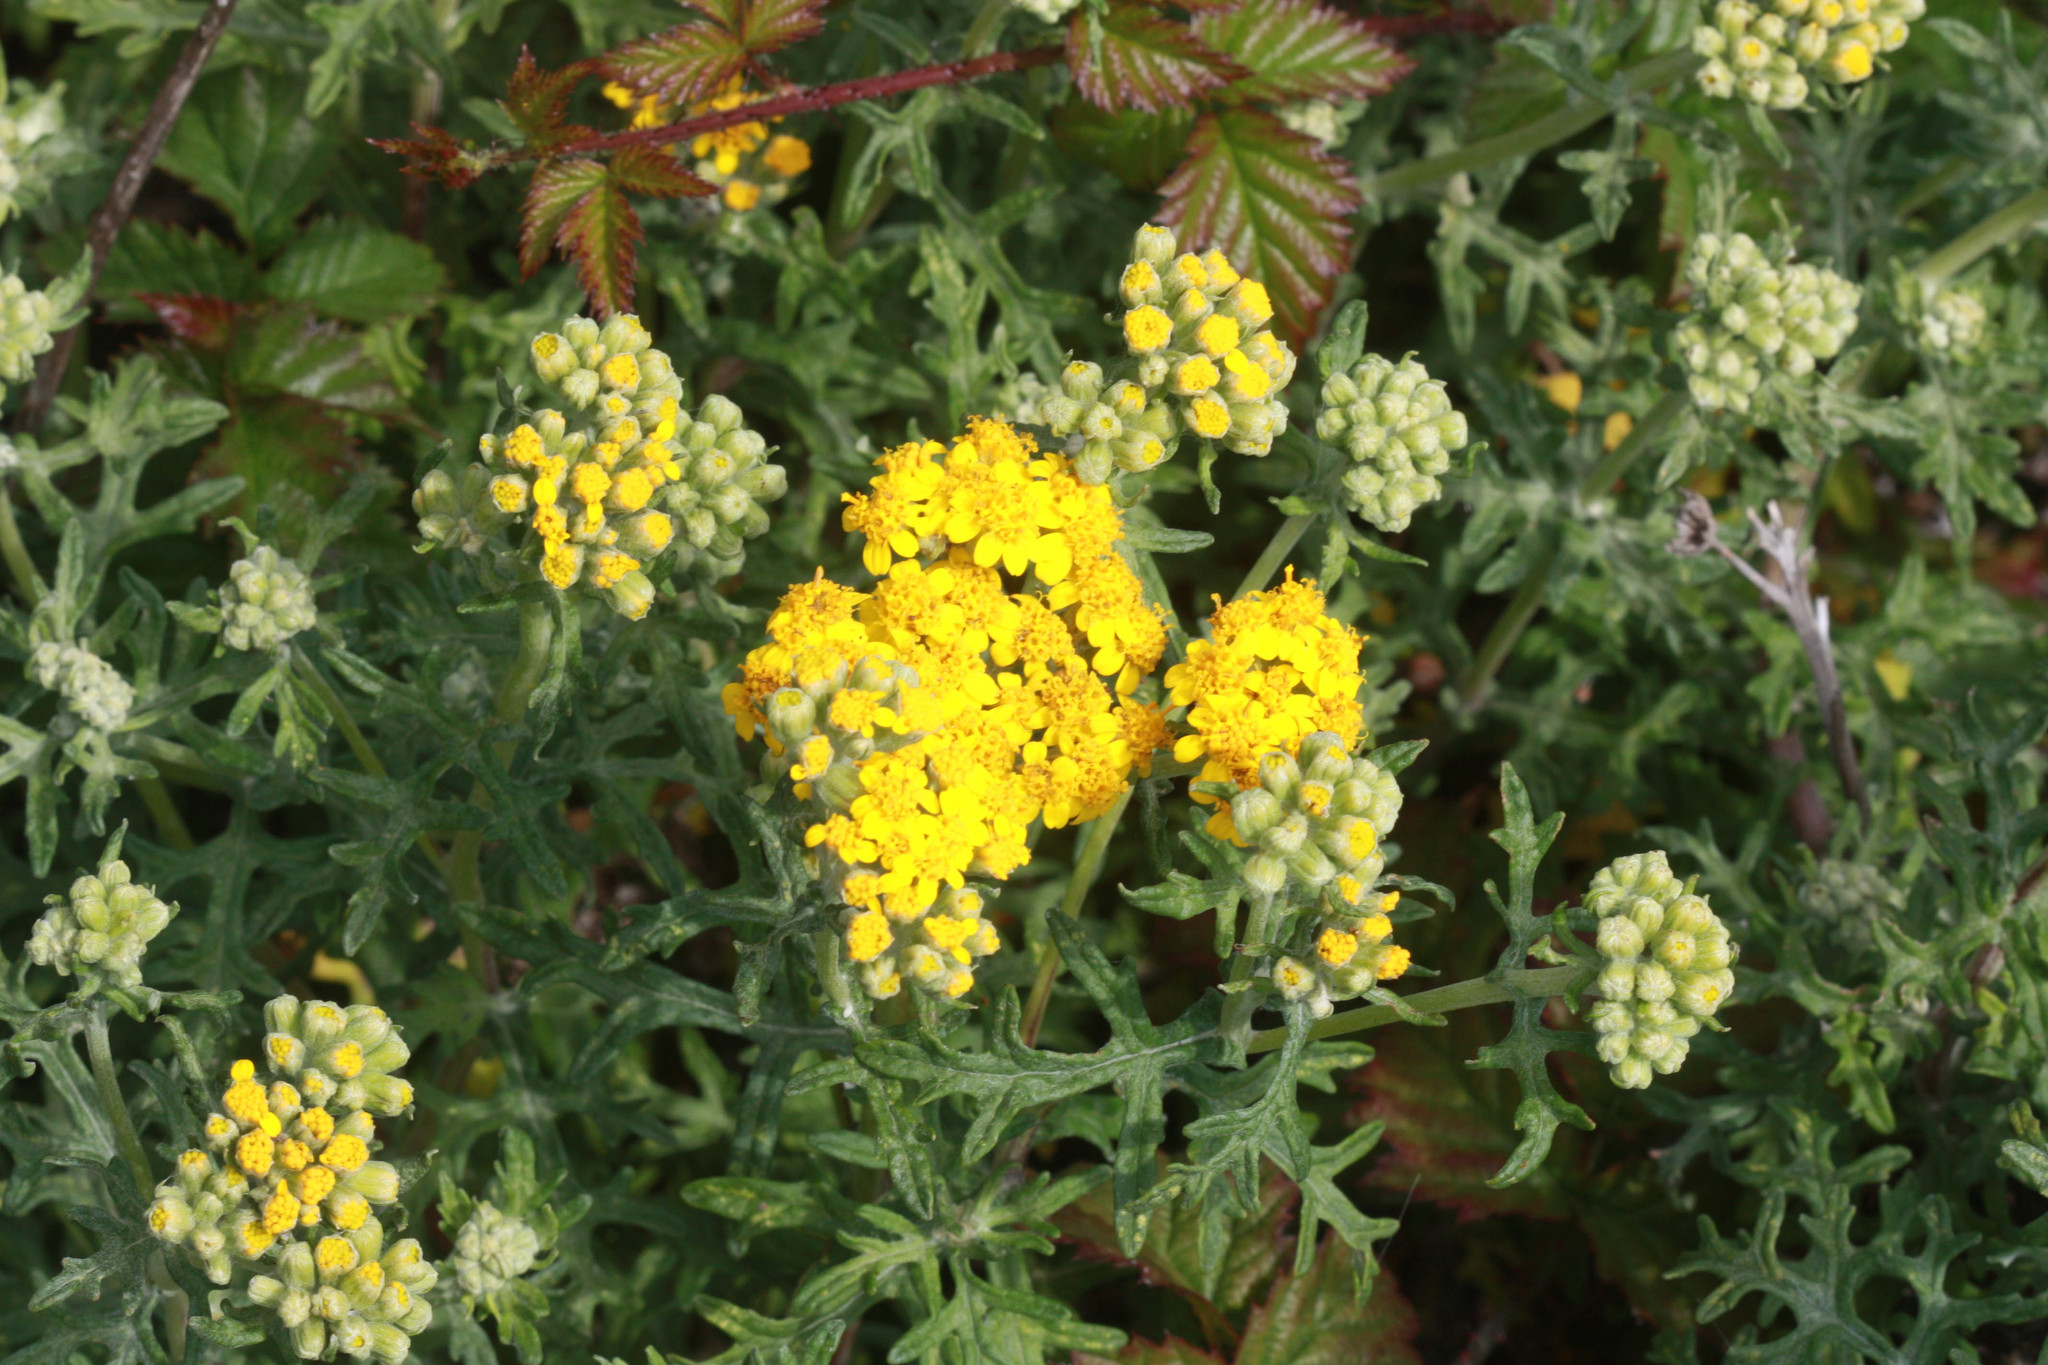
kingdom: Plantae
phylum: Tracheophyta
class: Magnoliopsida
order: Asterales
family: Asteraceae
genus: Eriophyllum
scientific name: Eriophyllum staechadifolium
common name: Lizardtail
